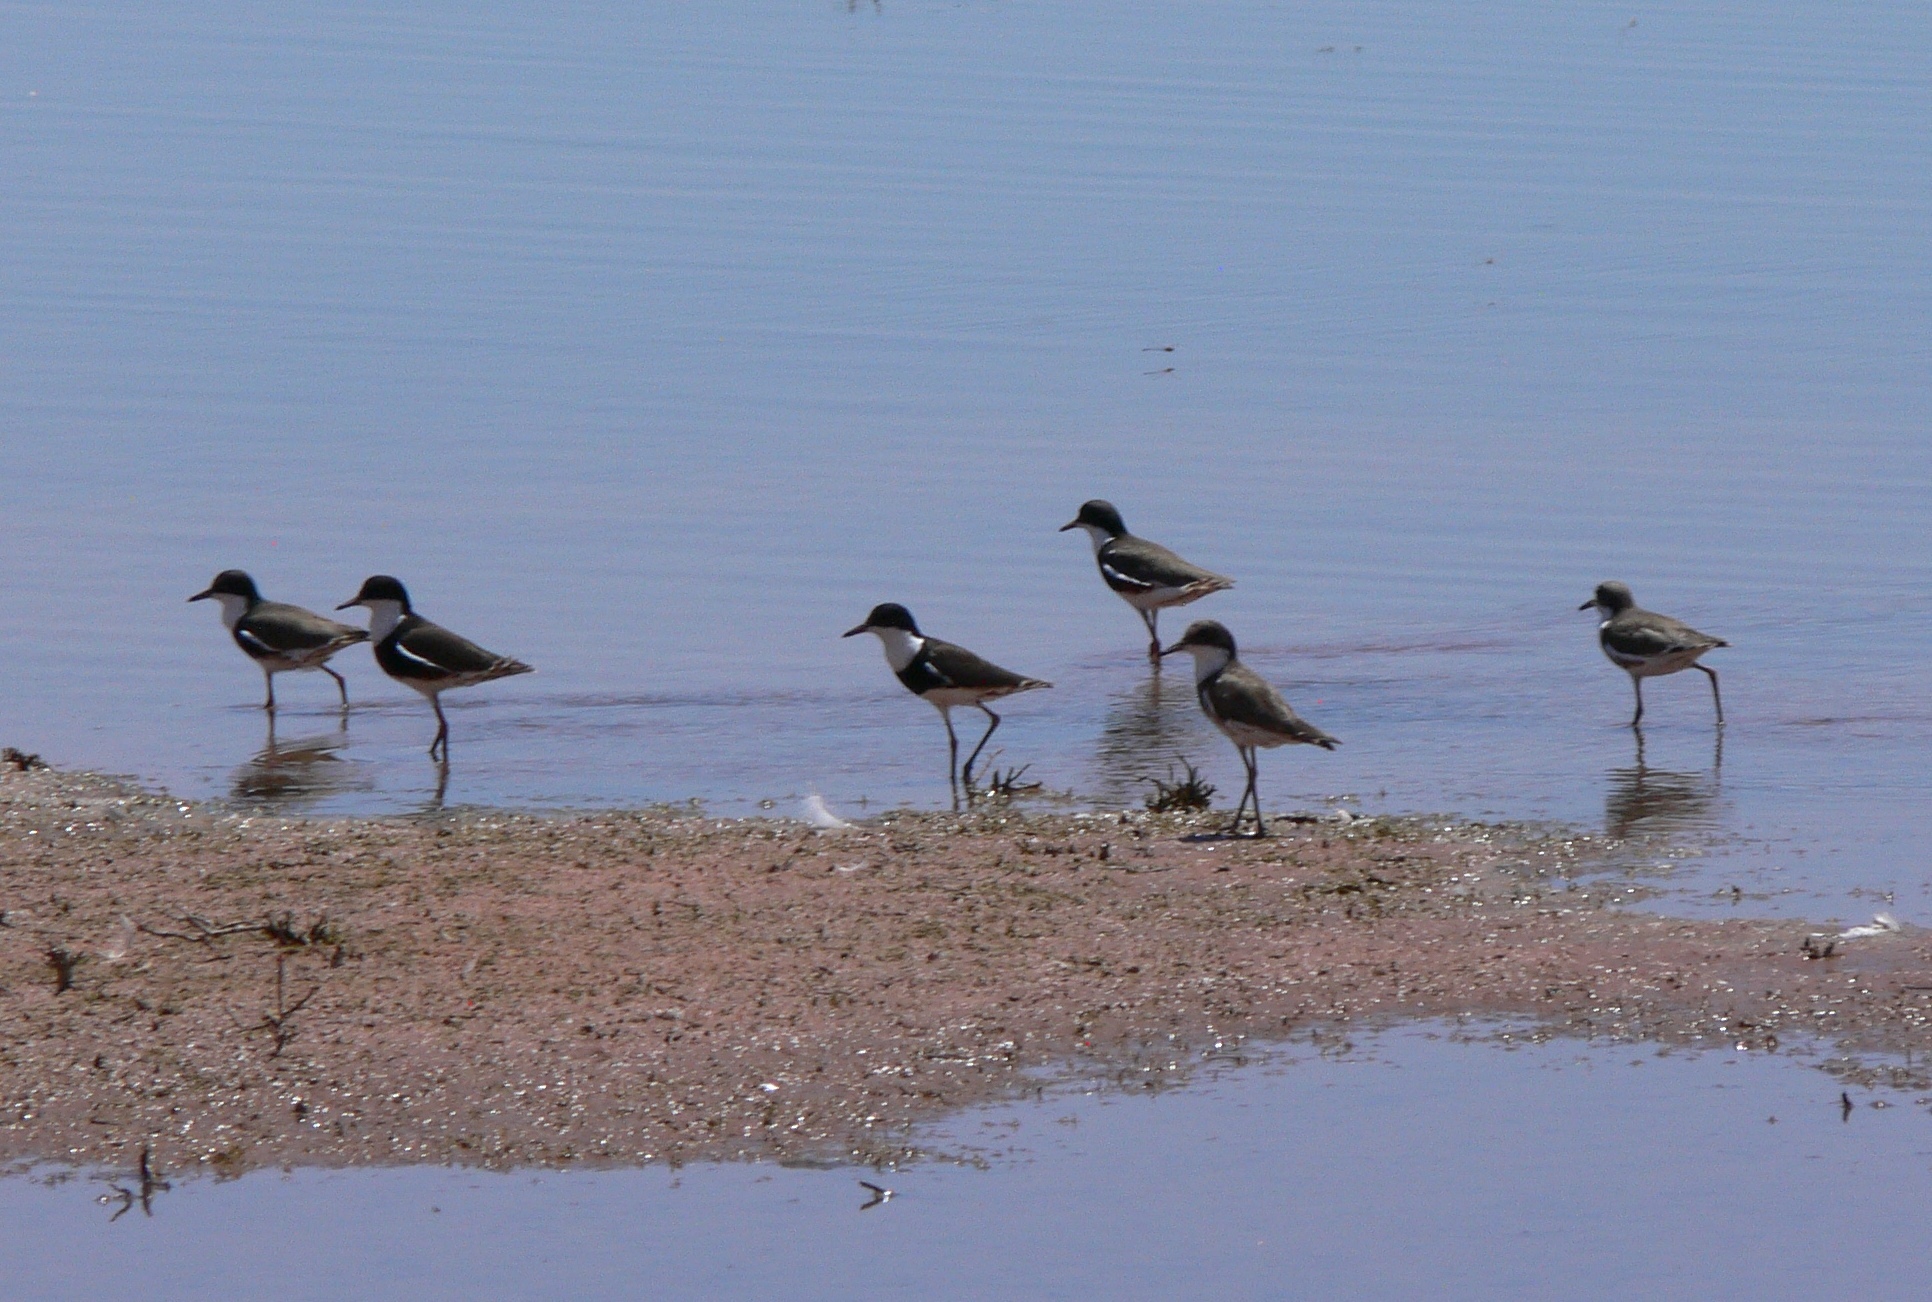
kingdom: Animalia
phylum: Chordata
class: Aves
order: Charadriiformes
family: Charadriidae
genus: Erythrogonys
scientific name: Erythrogonys cinctus
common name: Red-kneed dotterel
